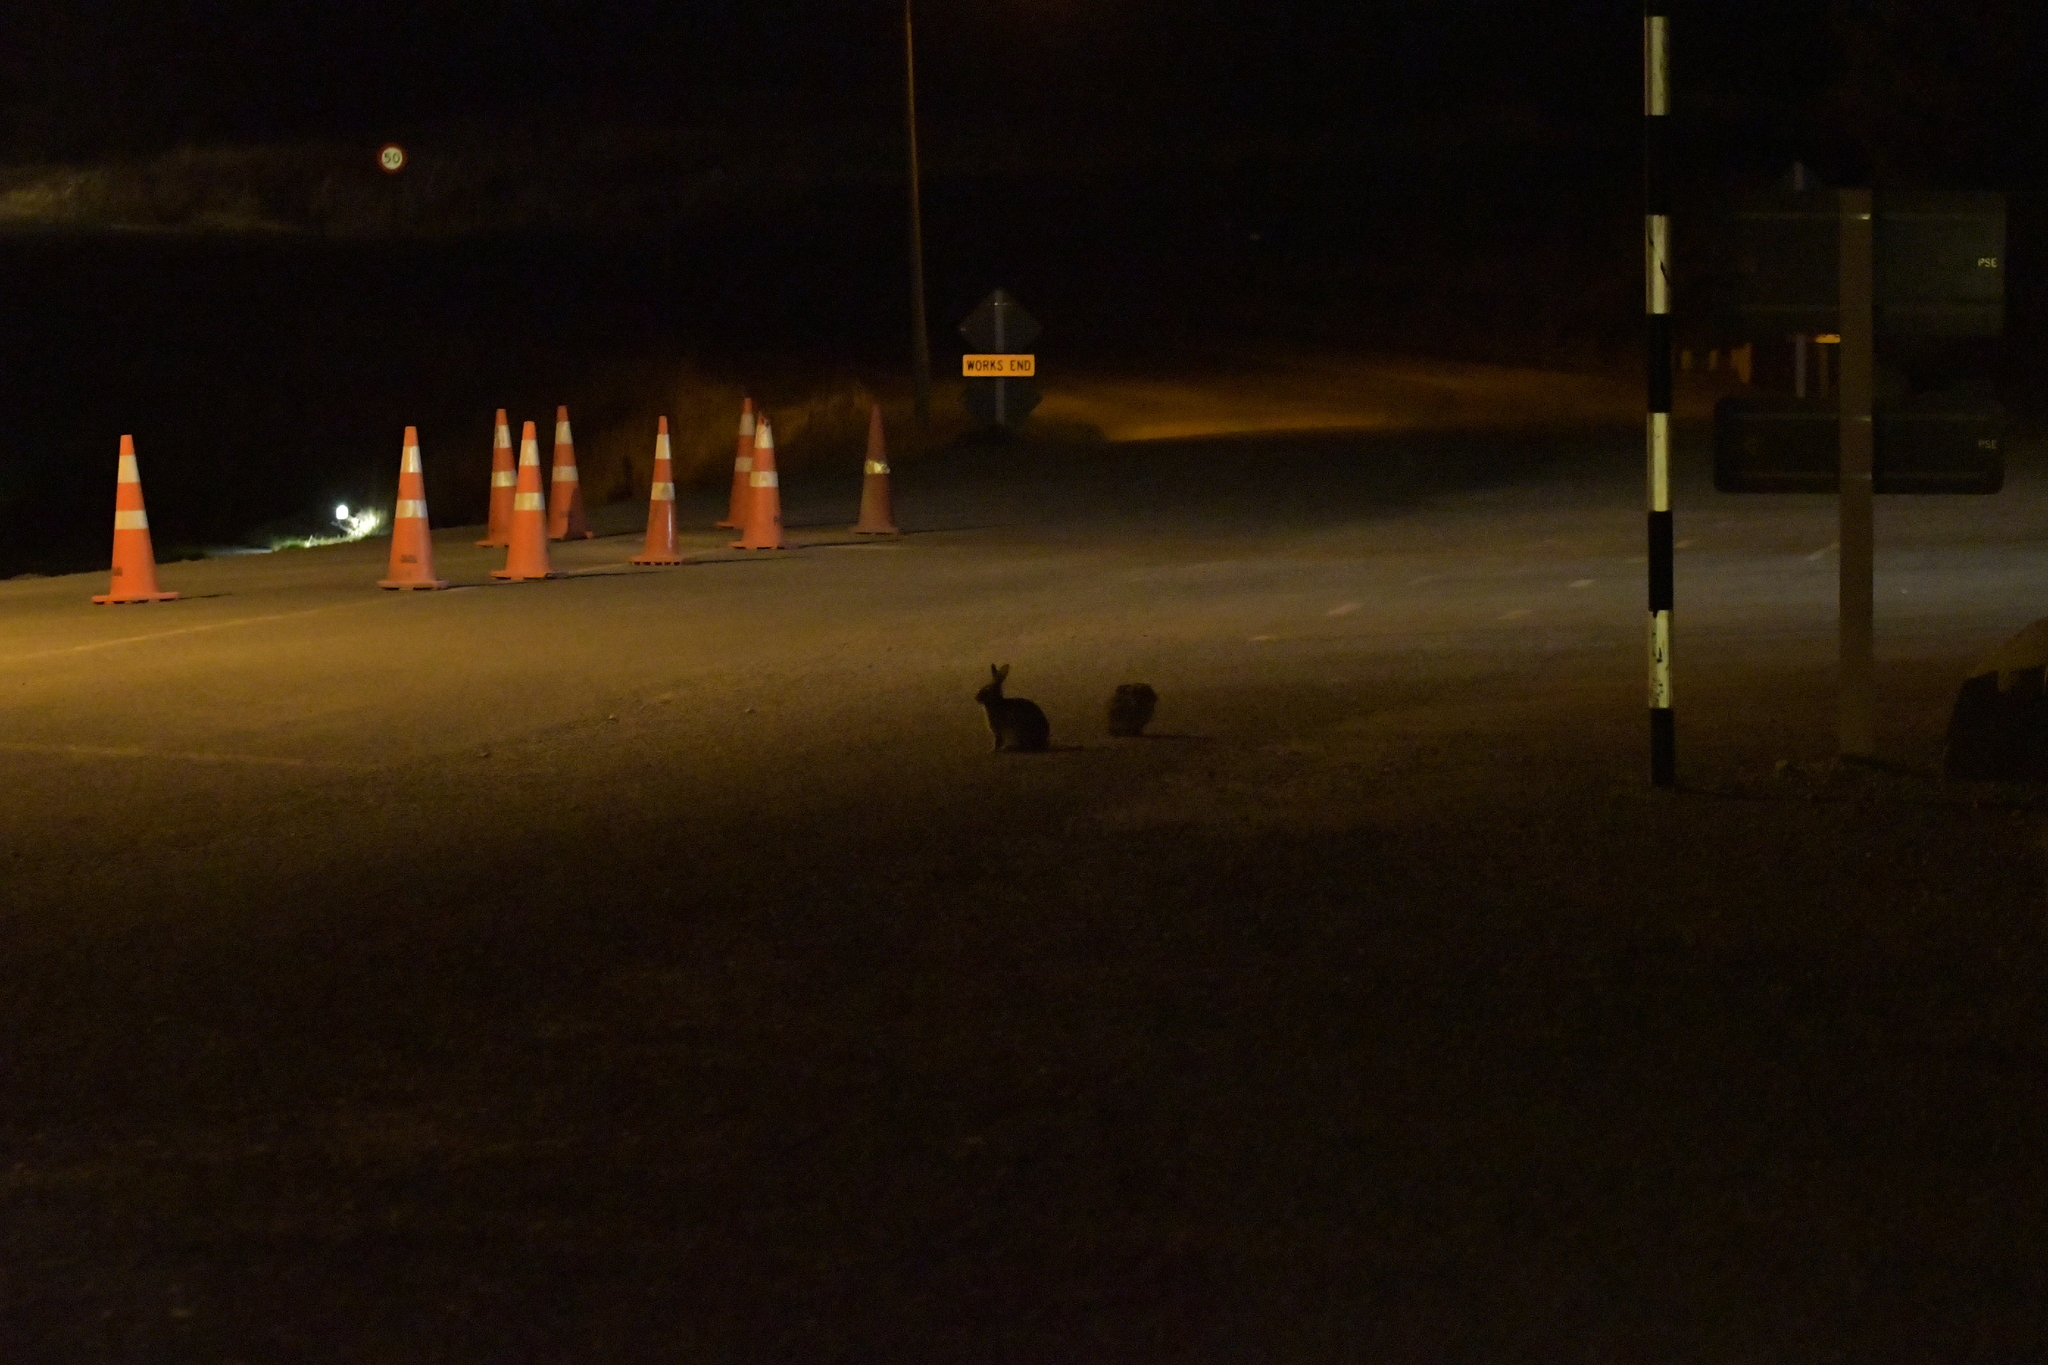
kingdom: Animalia
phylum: Chordata
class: Mammalia
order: Lagomorpha
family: Leporidae
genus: Oryctolagus
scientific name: Oryctolagus cuniculus
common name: European rabbit
